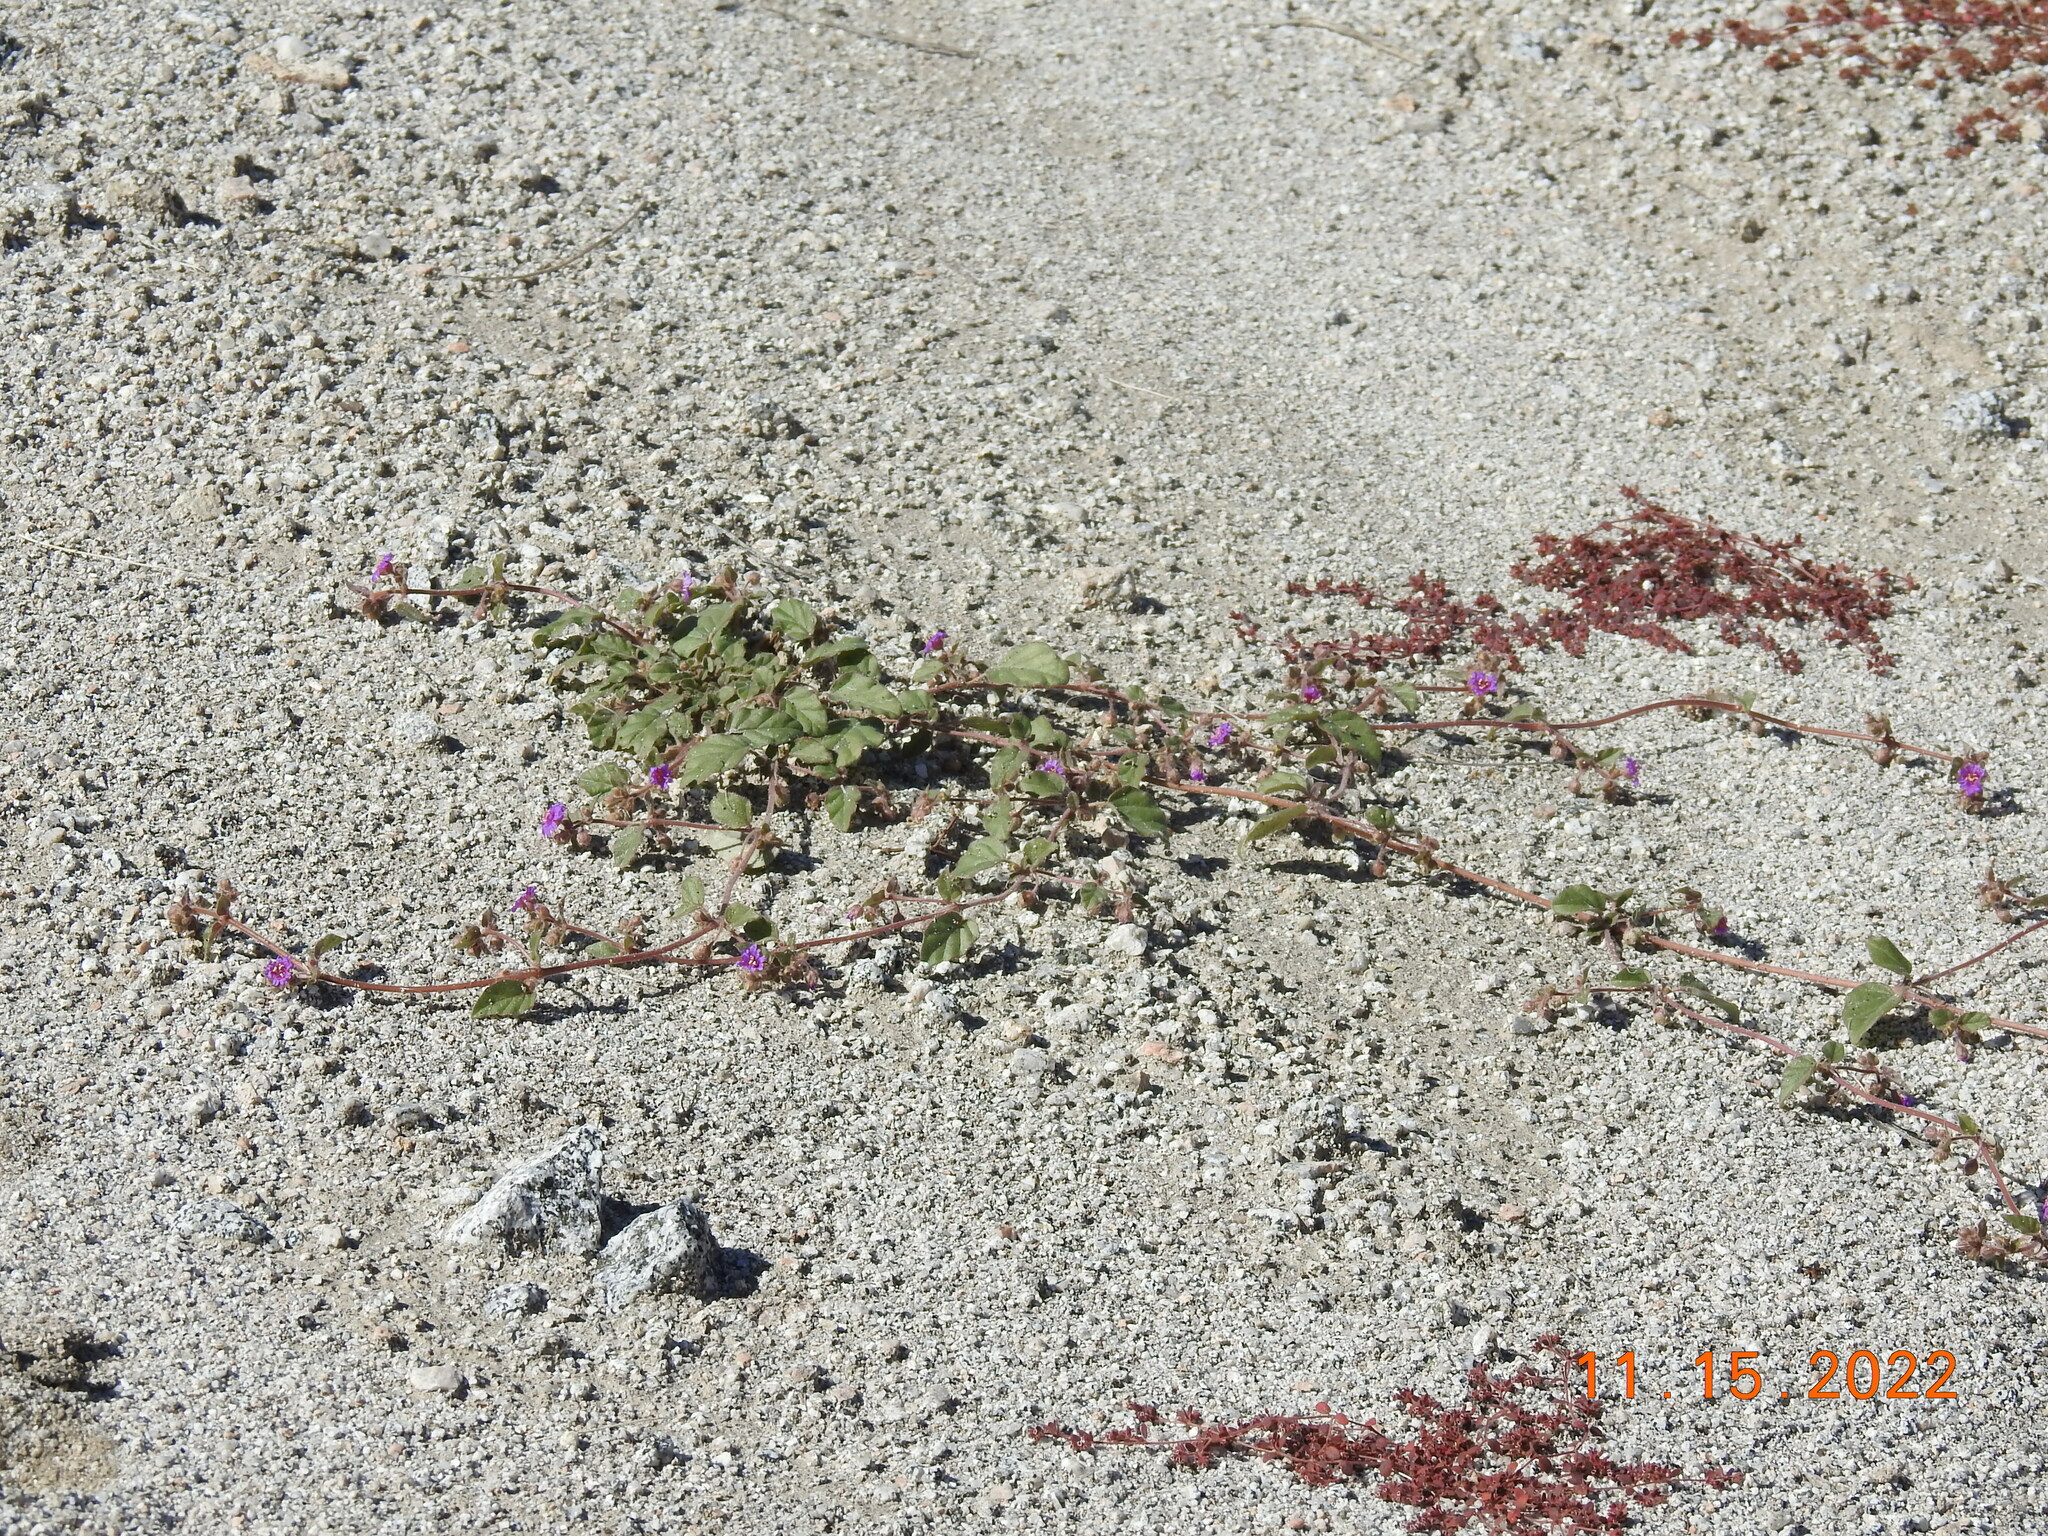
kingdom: Plantae
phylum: Tracheophyta
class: Magnoliopsida
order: Caryophyllales
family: Nyctaginaceae
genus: Allionia
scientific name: Allionia incarnata
